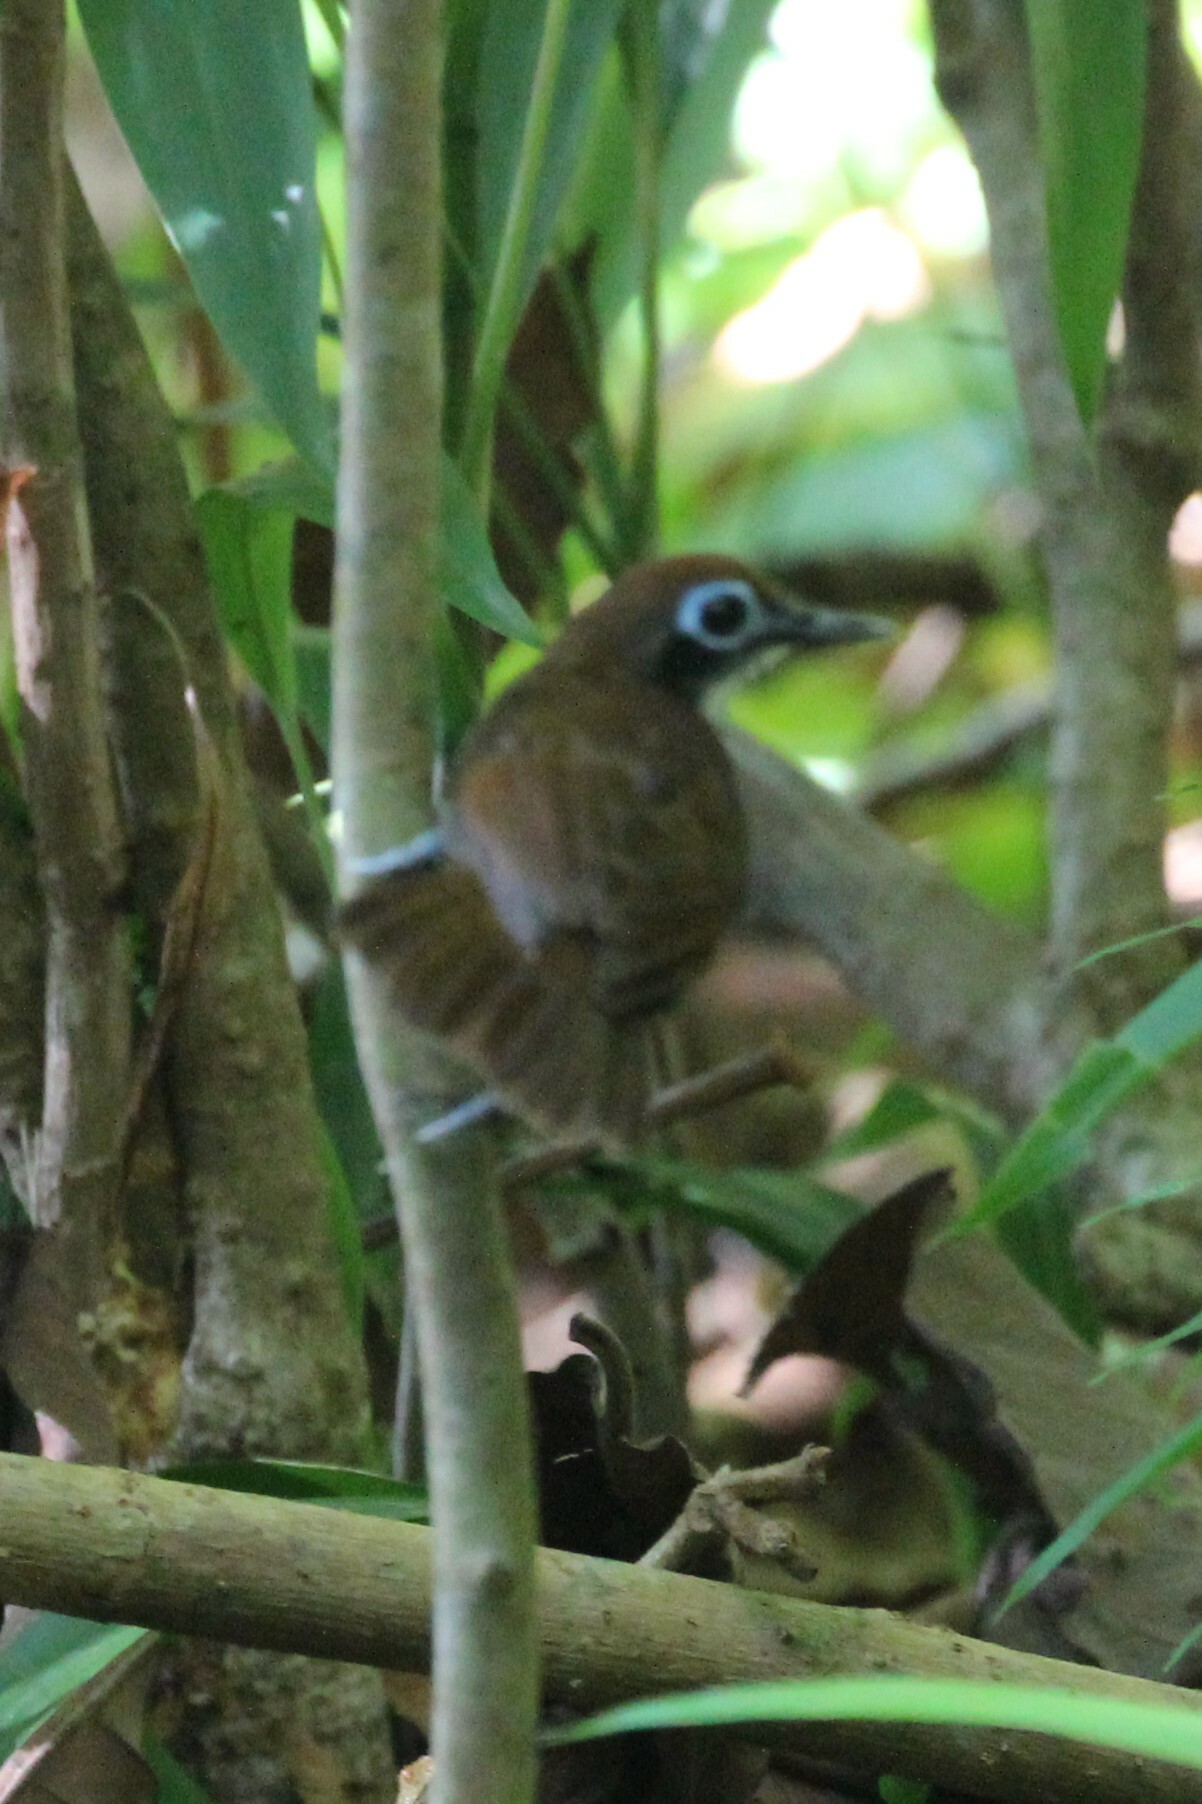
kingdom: Animalia
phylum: Chordata
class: Aves
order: Passeriformes
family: Thamnophilidae
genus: Gymnopithys
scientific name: Gymnopithys leucaspis
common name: White-cheeked antbird
